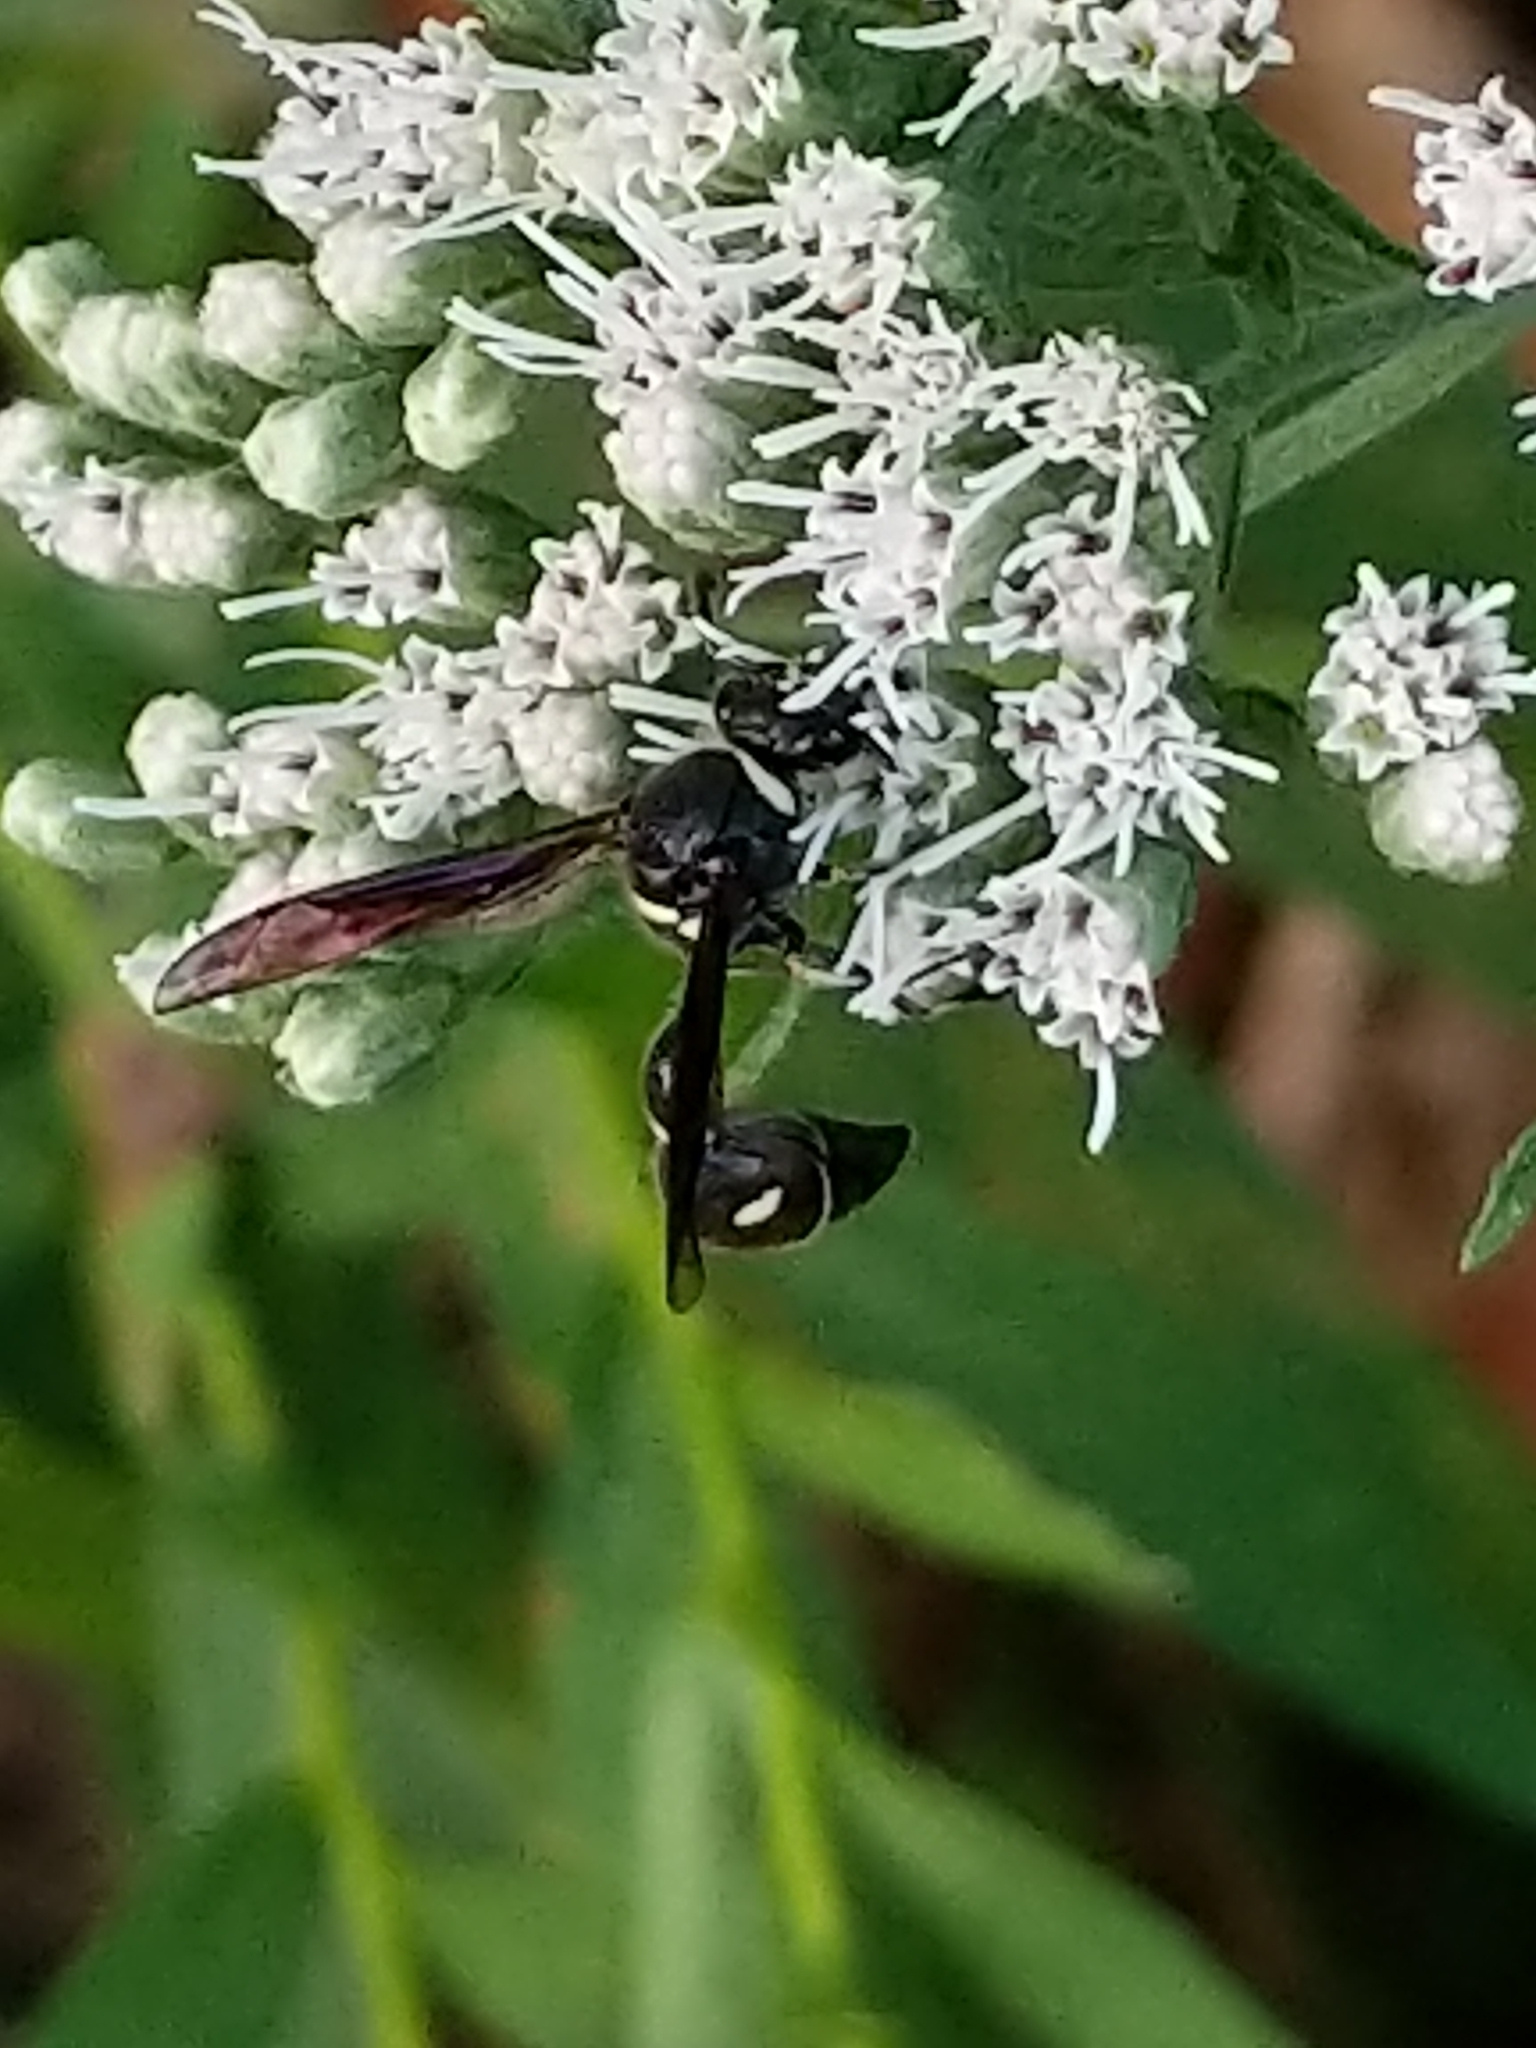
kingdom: Animalia
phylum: Arthropoda
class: Insecta
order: Hymenoptera
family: Vespidae
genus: Eumenes
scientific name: Eumenes fraternus
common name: Fraternal potter wasp
